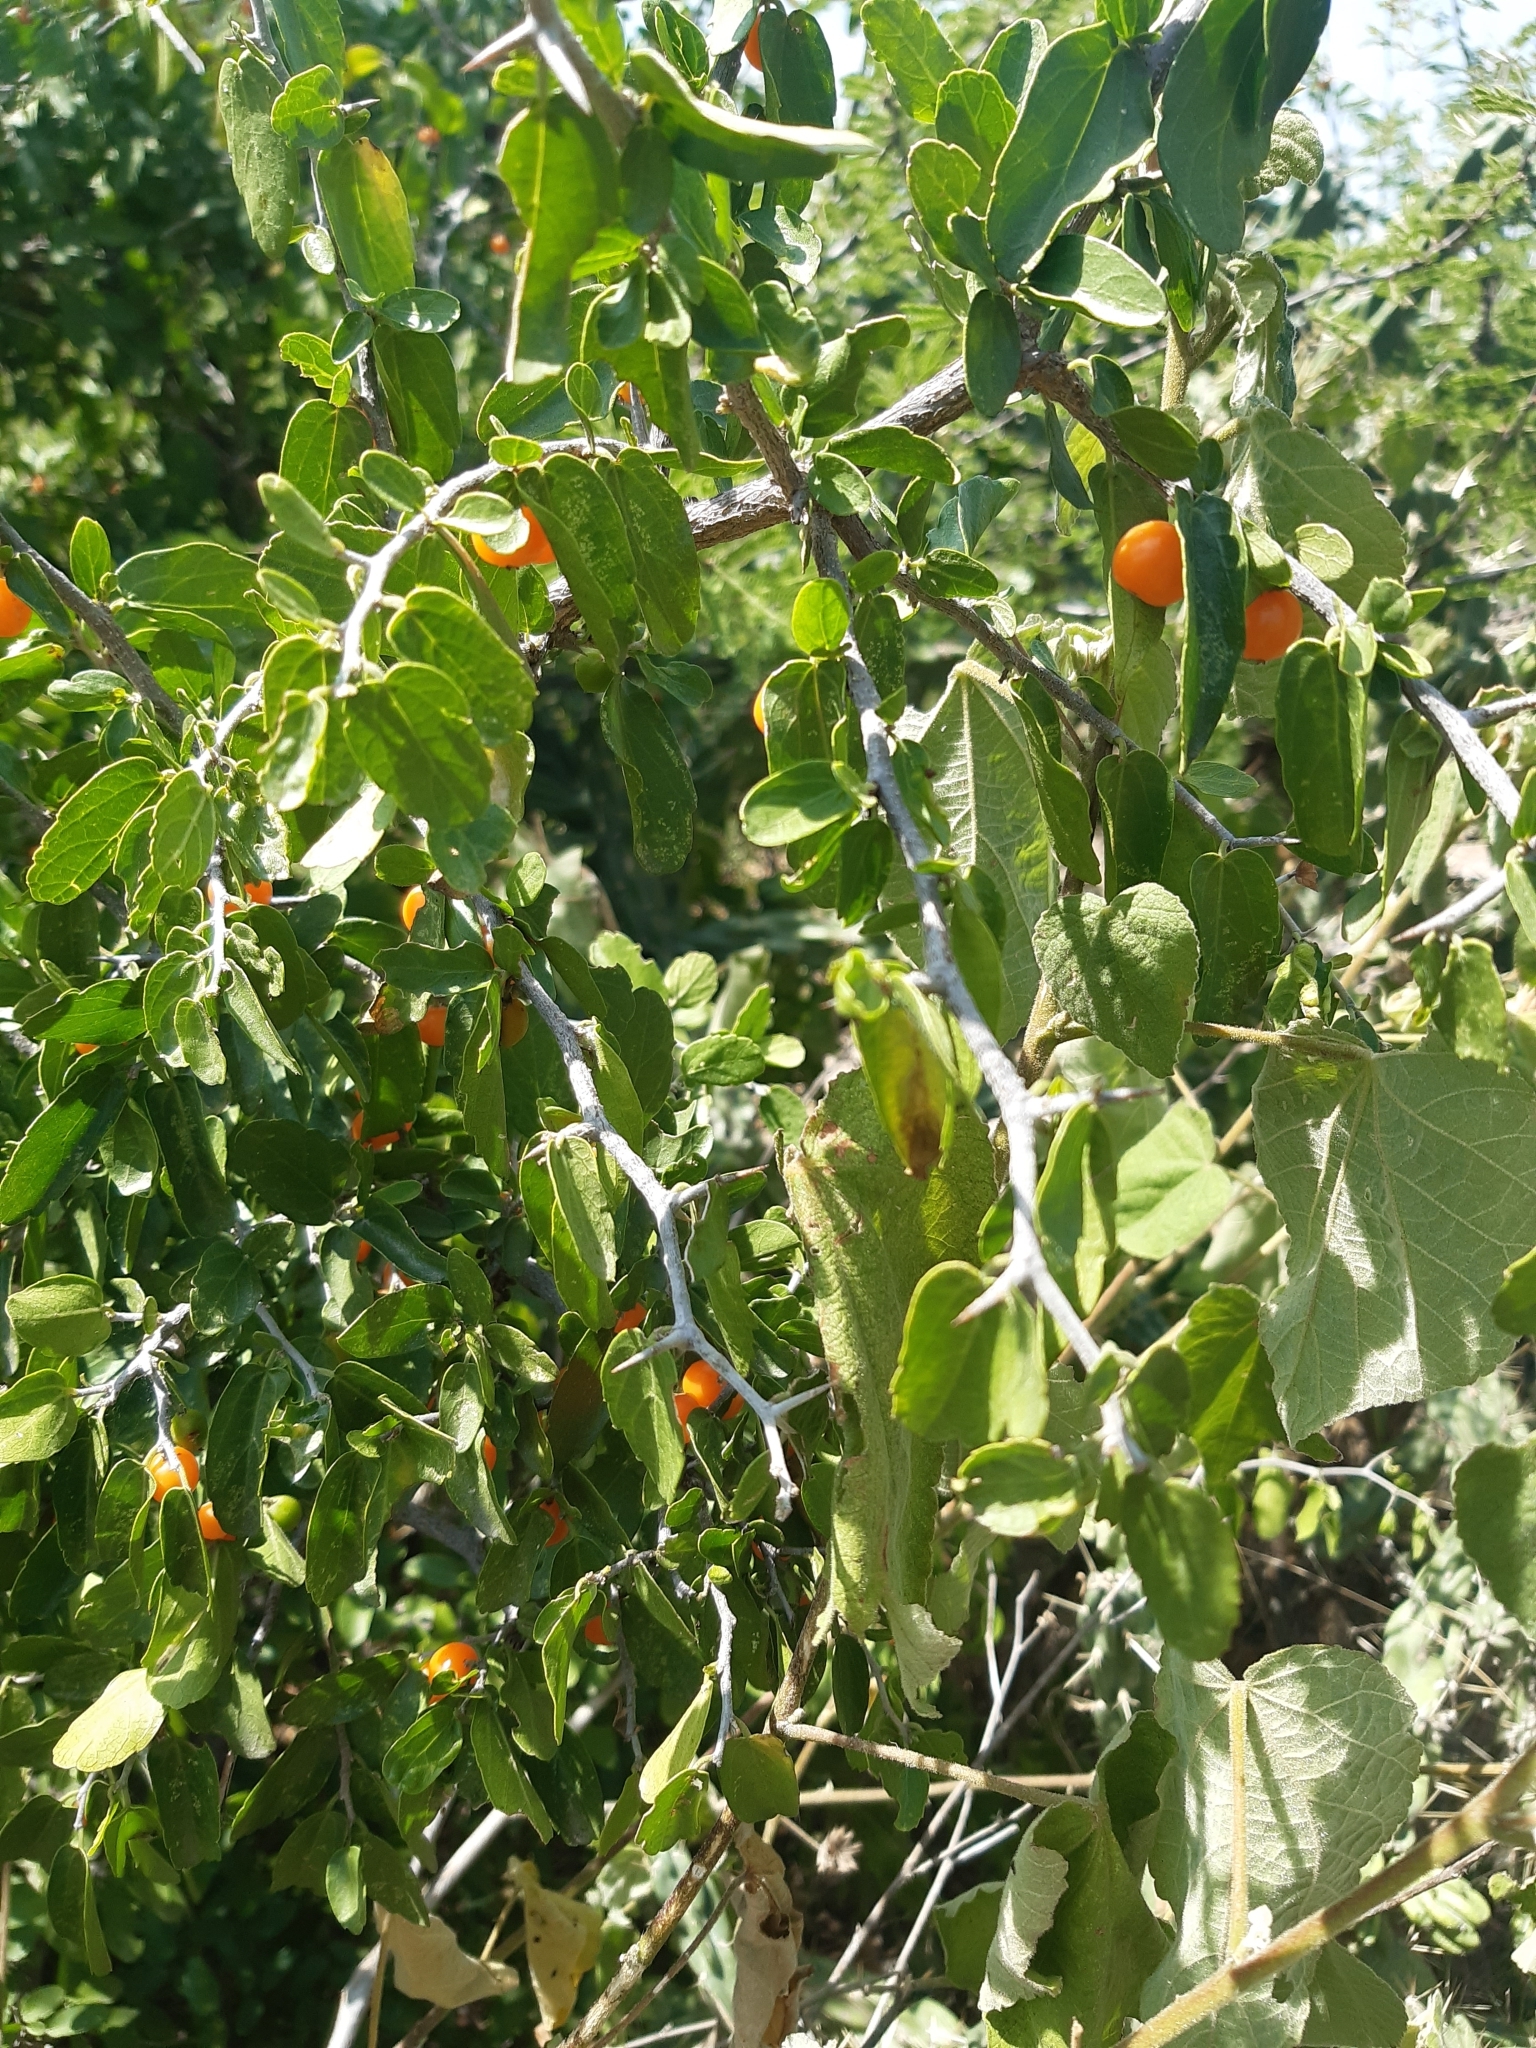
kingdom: Plantae
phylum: Tracheophyta
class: Magnoliopsida
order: Rosales
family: Cannabaceae
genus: Celtis
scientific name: Celtis pallida
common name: Desert hackberry
